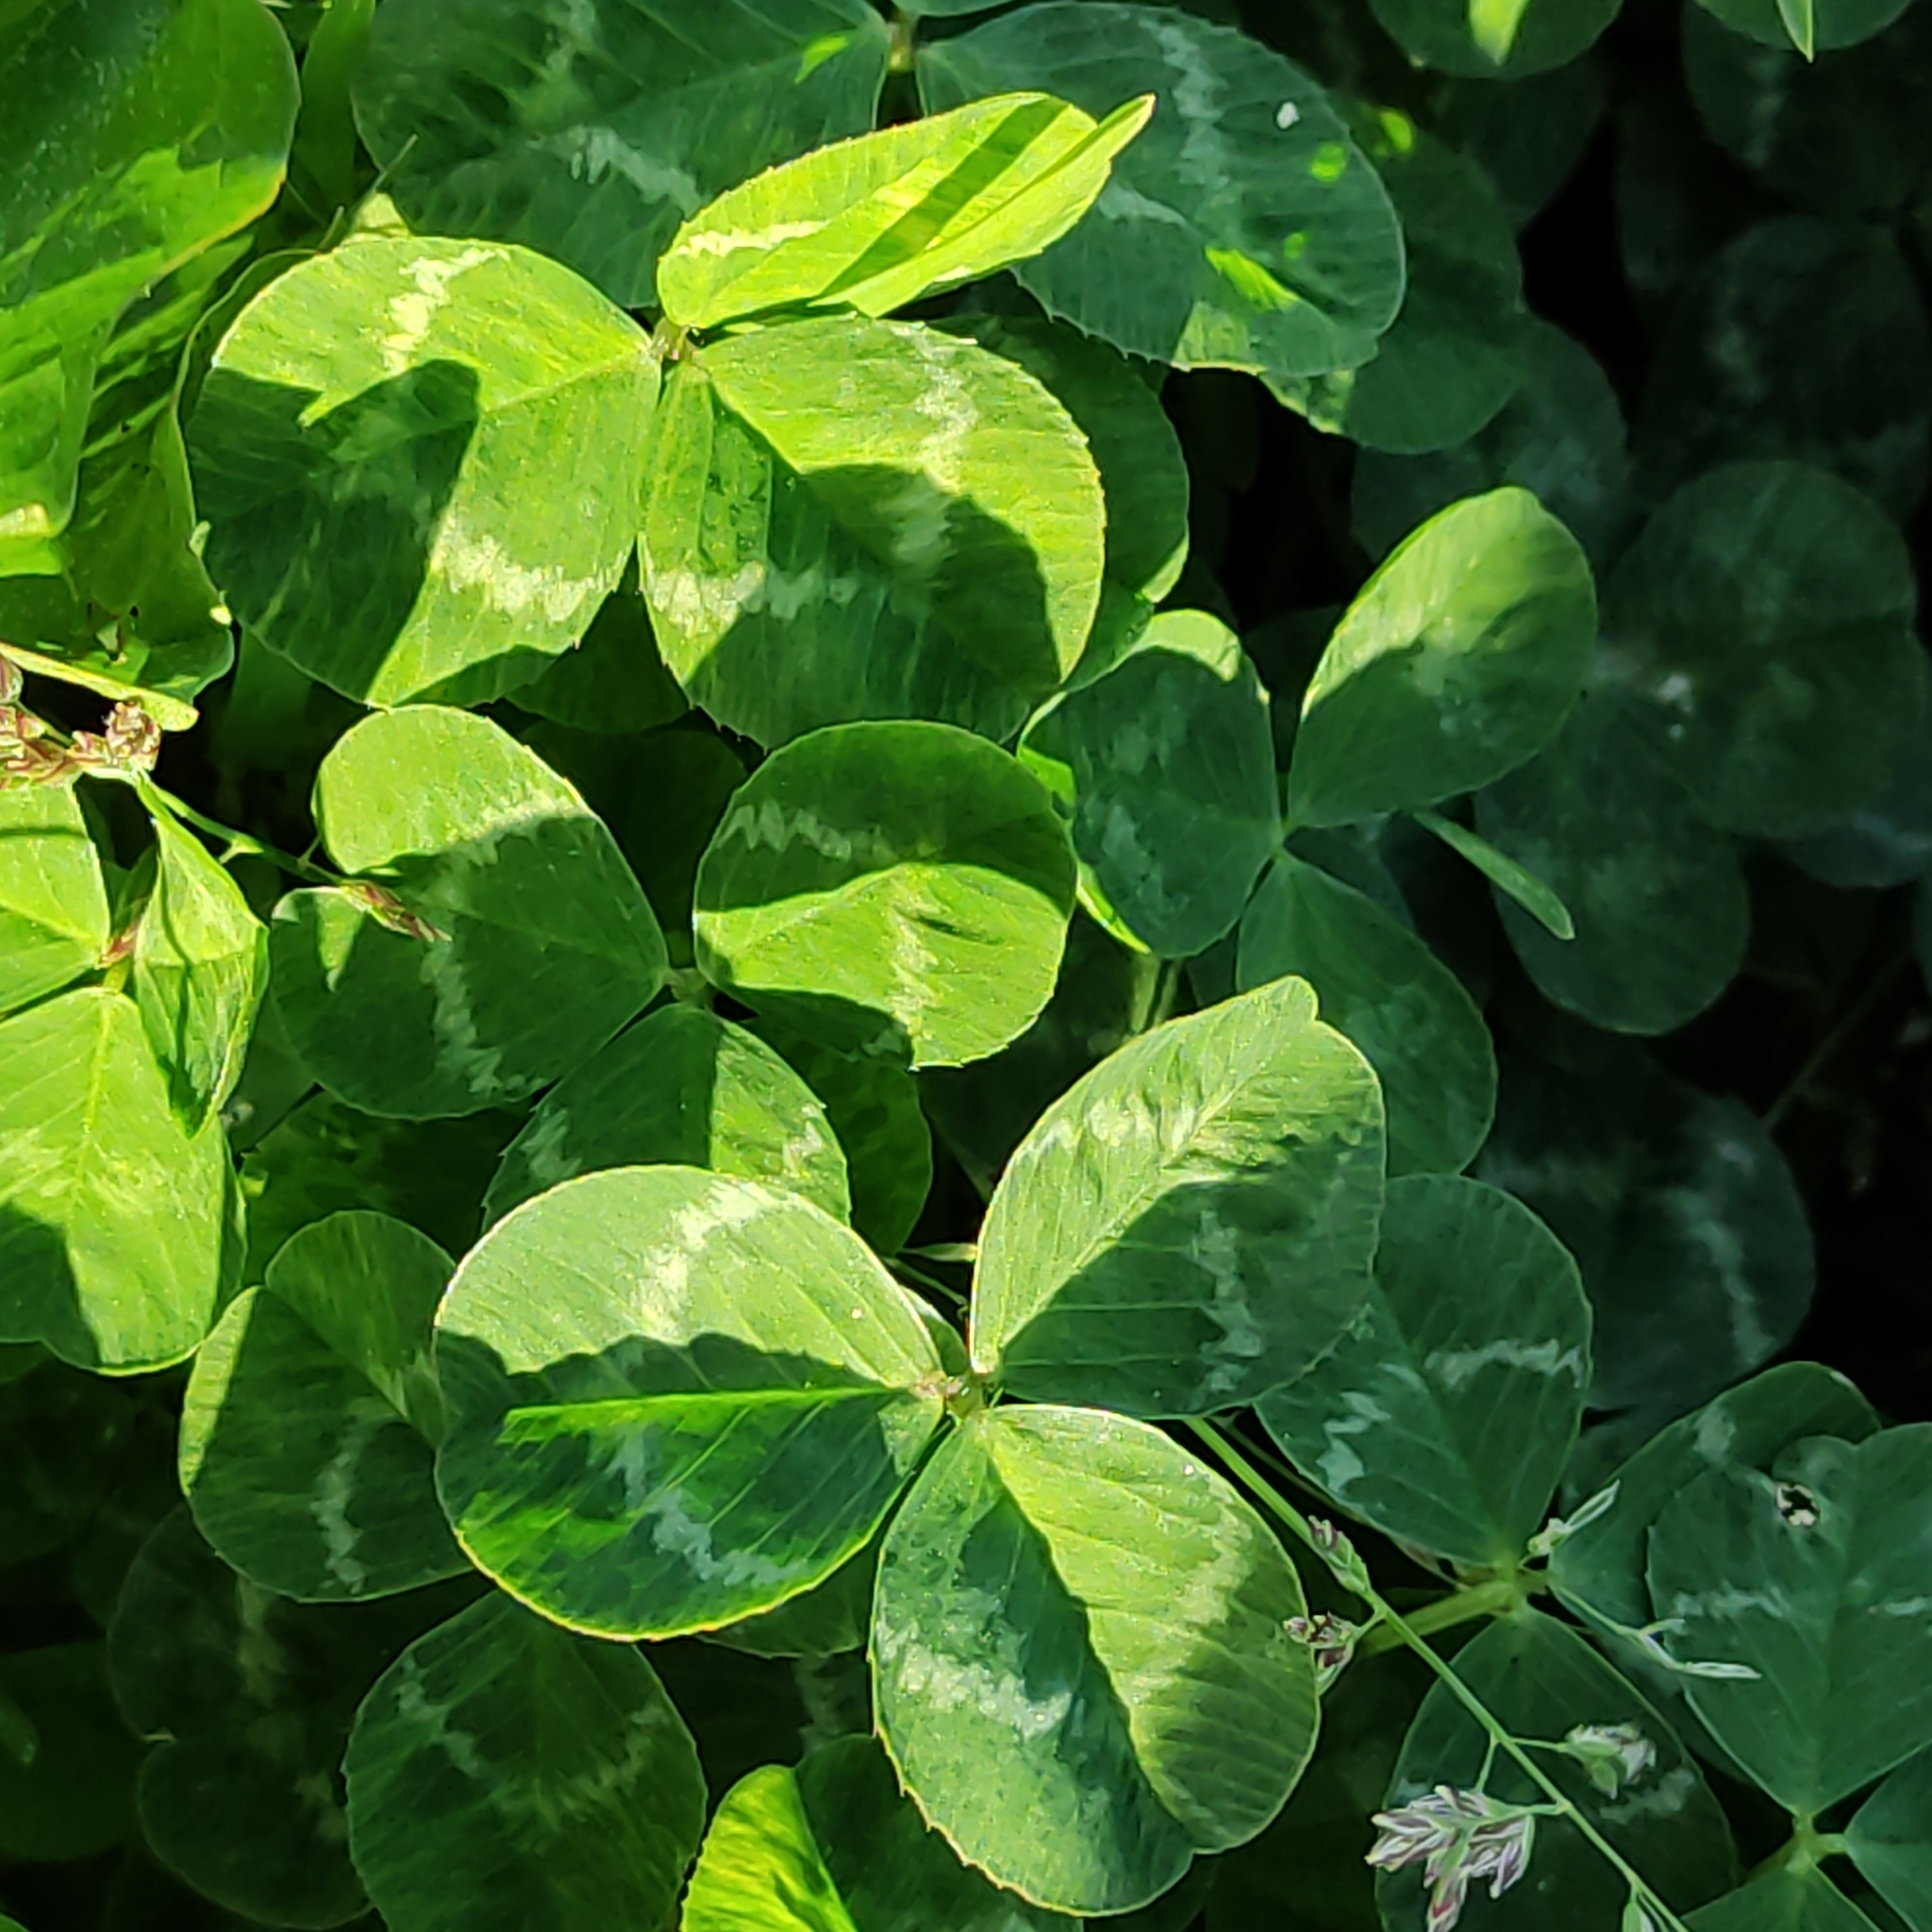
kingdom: Plantae
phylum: Tracheophyta
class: Magnoliopsida
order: Fabales
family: Fabaceae
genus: Trifolium
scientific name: Trifolium repens
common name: White clover
